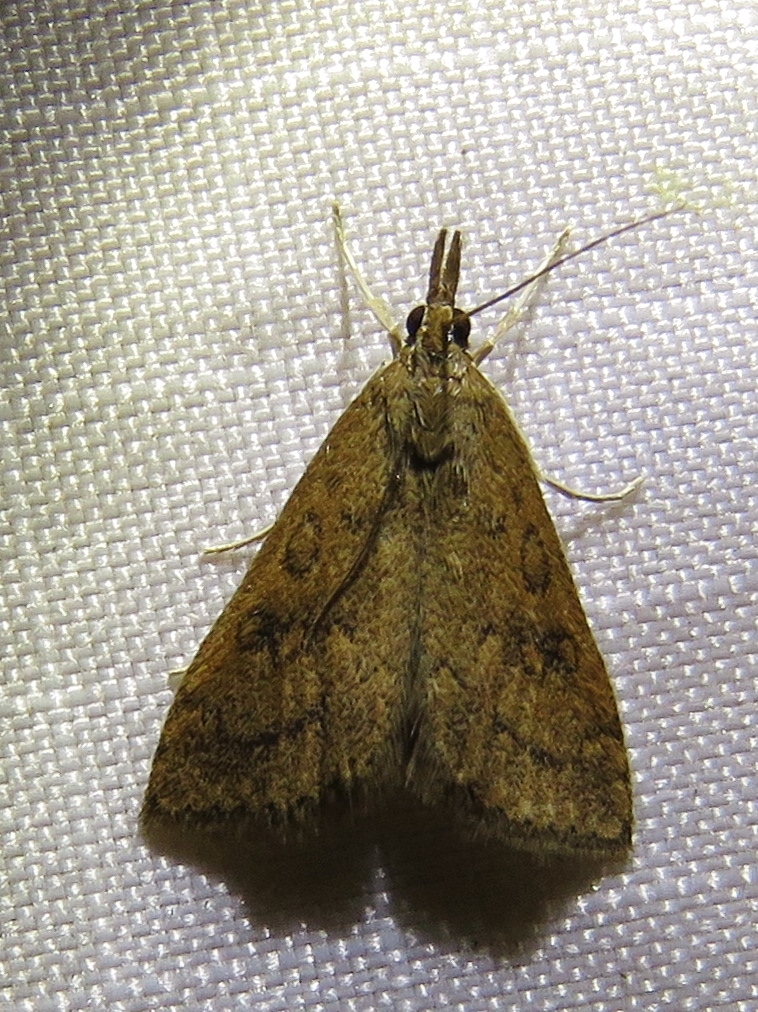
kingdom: Animalia
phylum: Arthropoda
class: Insecta
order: Lepidoptera
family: Crambidae
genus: Udea
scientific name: Udea rubigalis
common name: Celery leaftier moth
